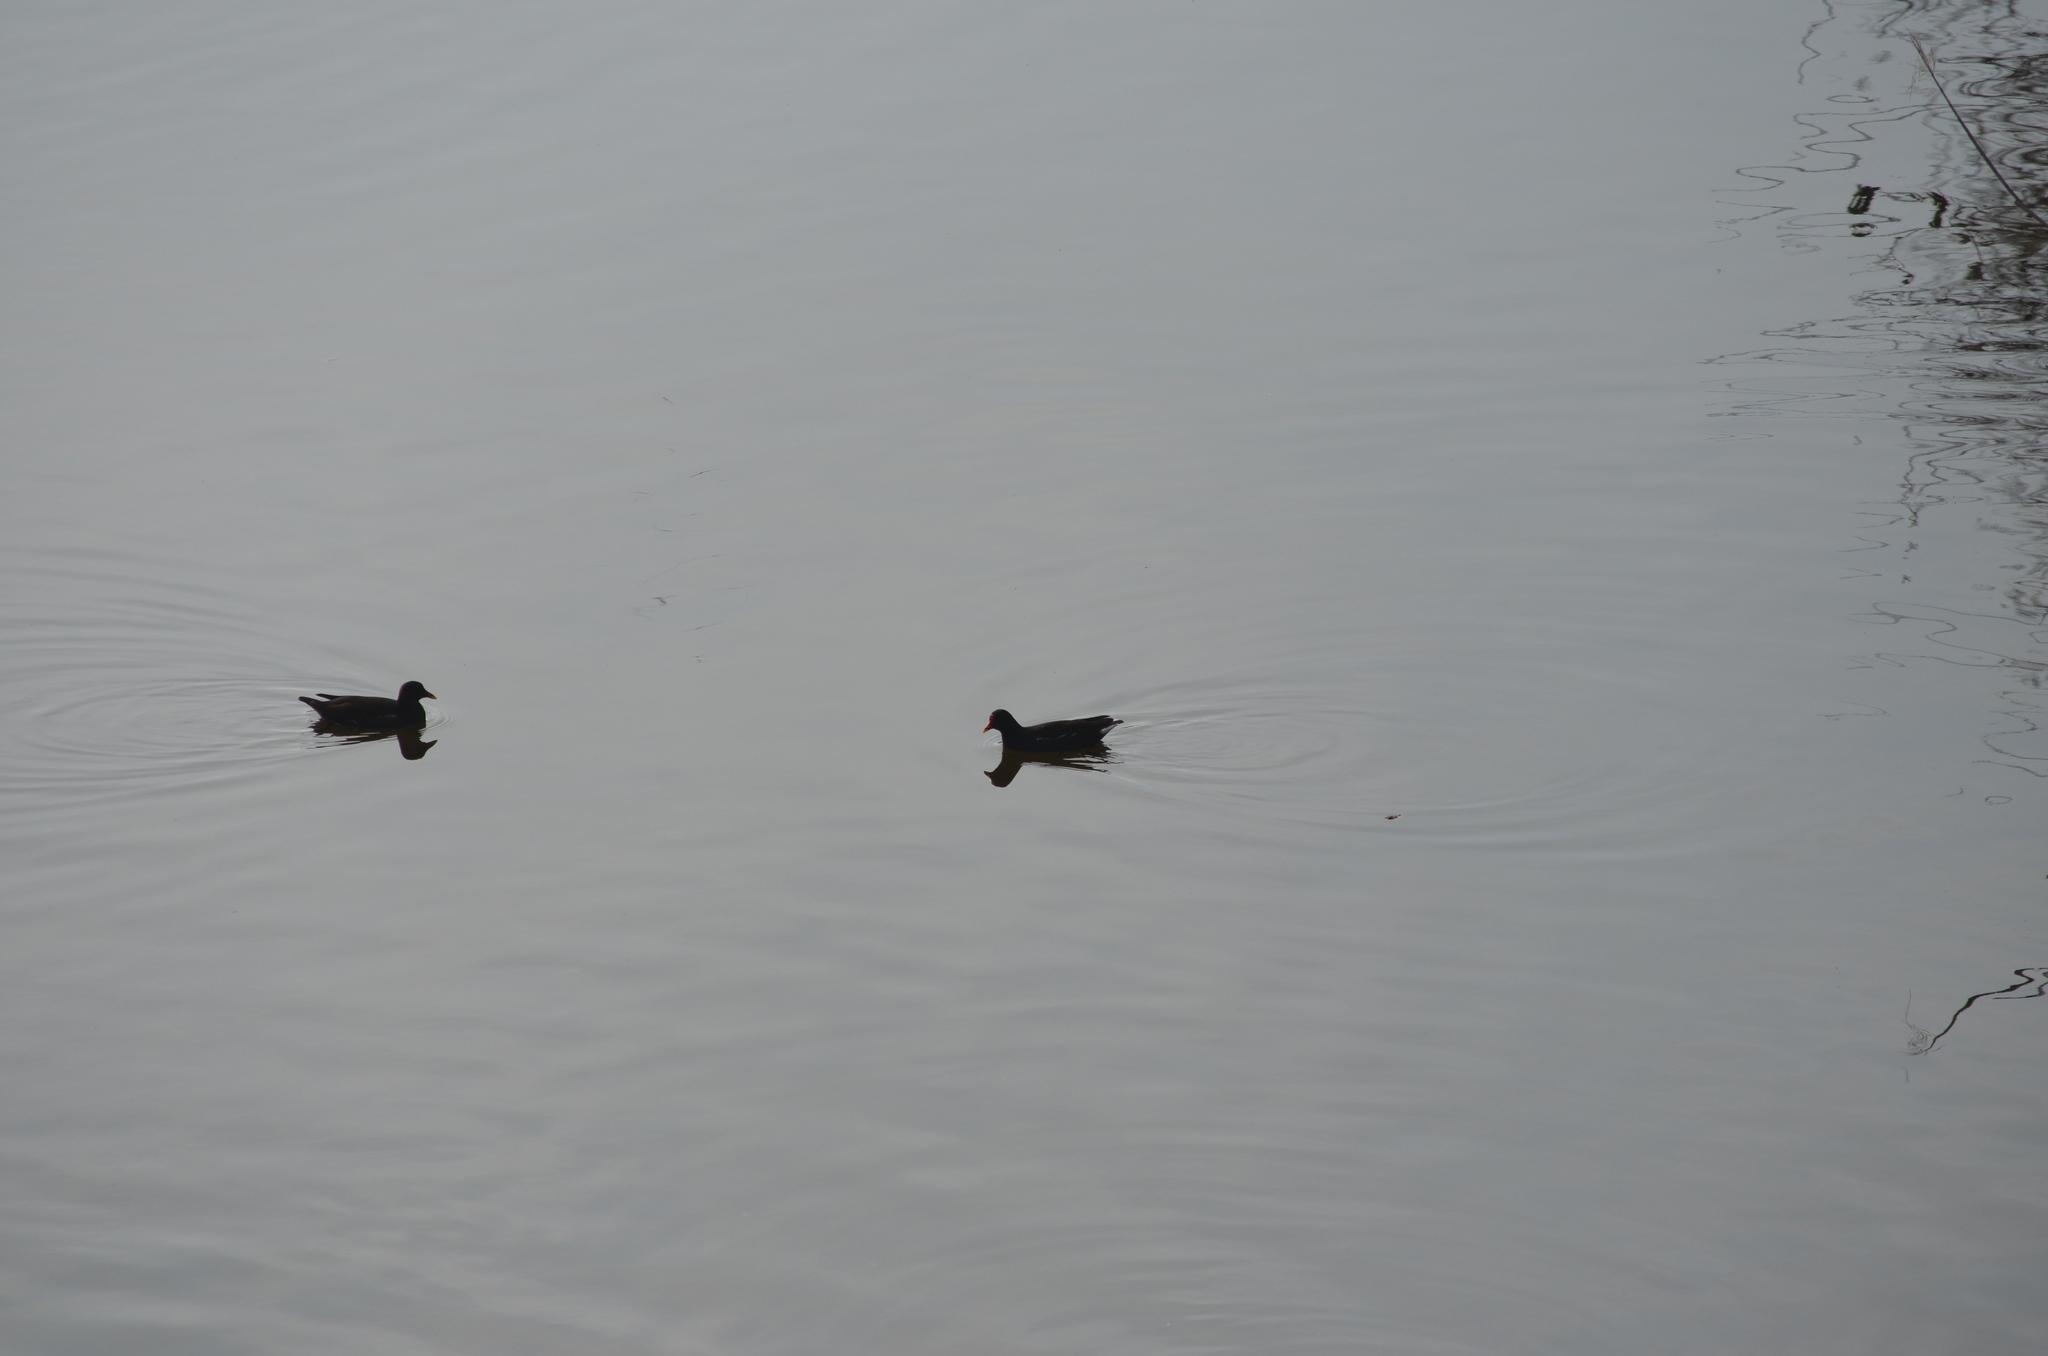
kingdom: Animalia
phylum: Chordata
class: Aves
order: Gruiformes
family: Rallidae
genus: Gallinula
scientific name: Gallinula chloropus
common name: Common moorhen
